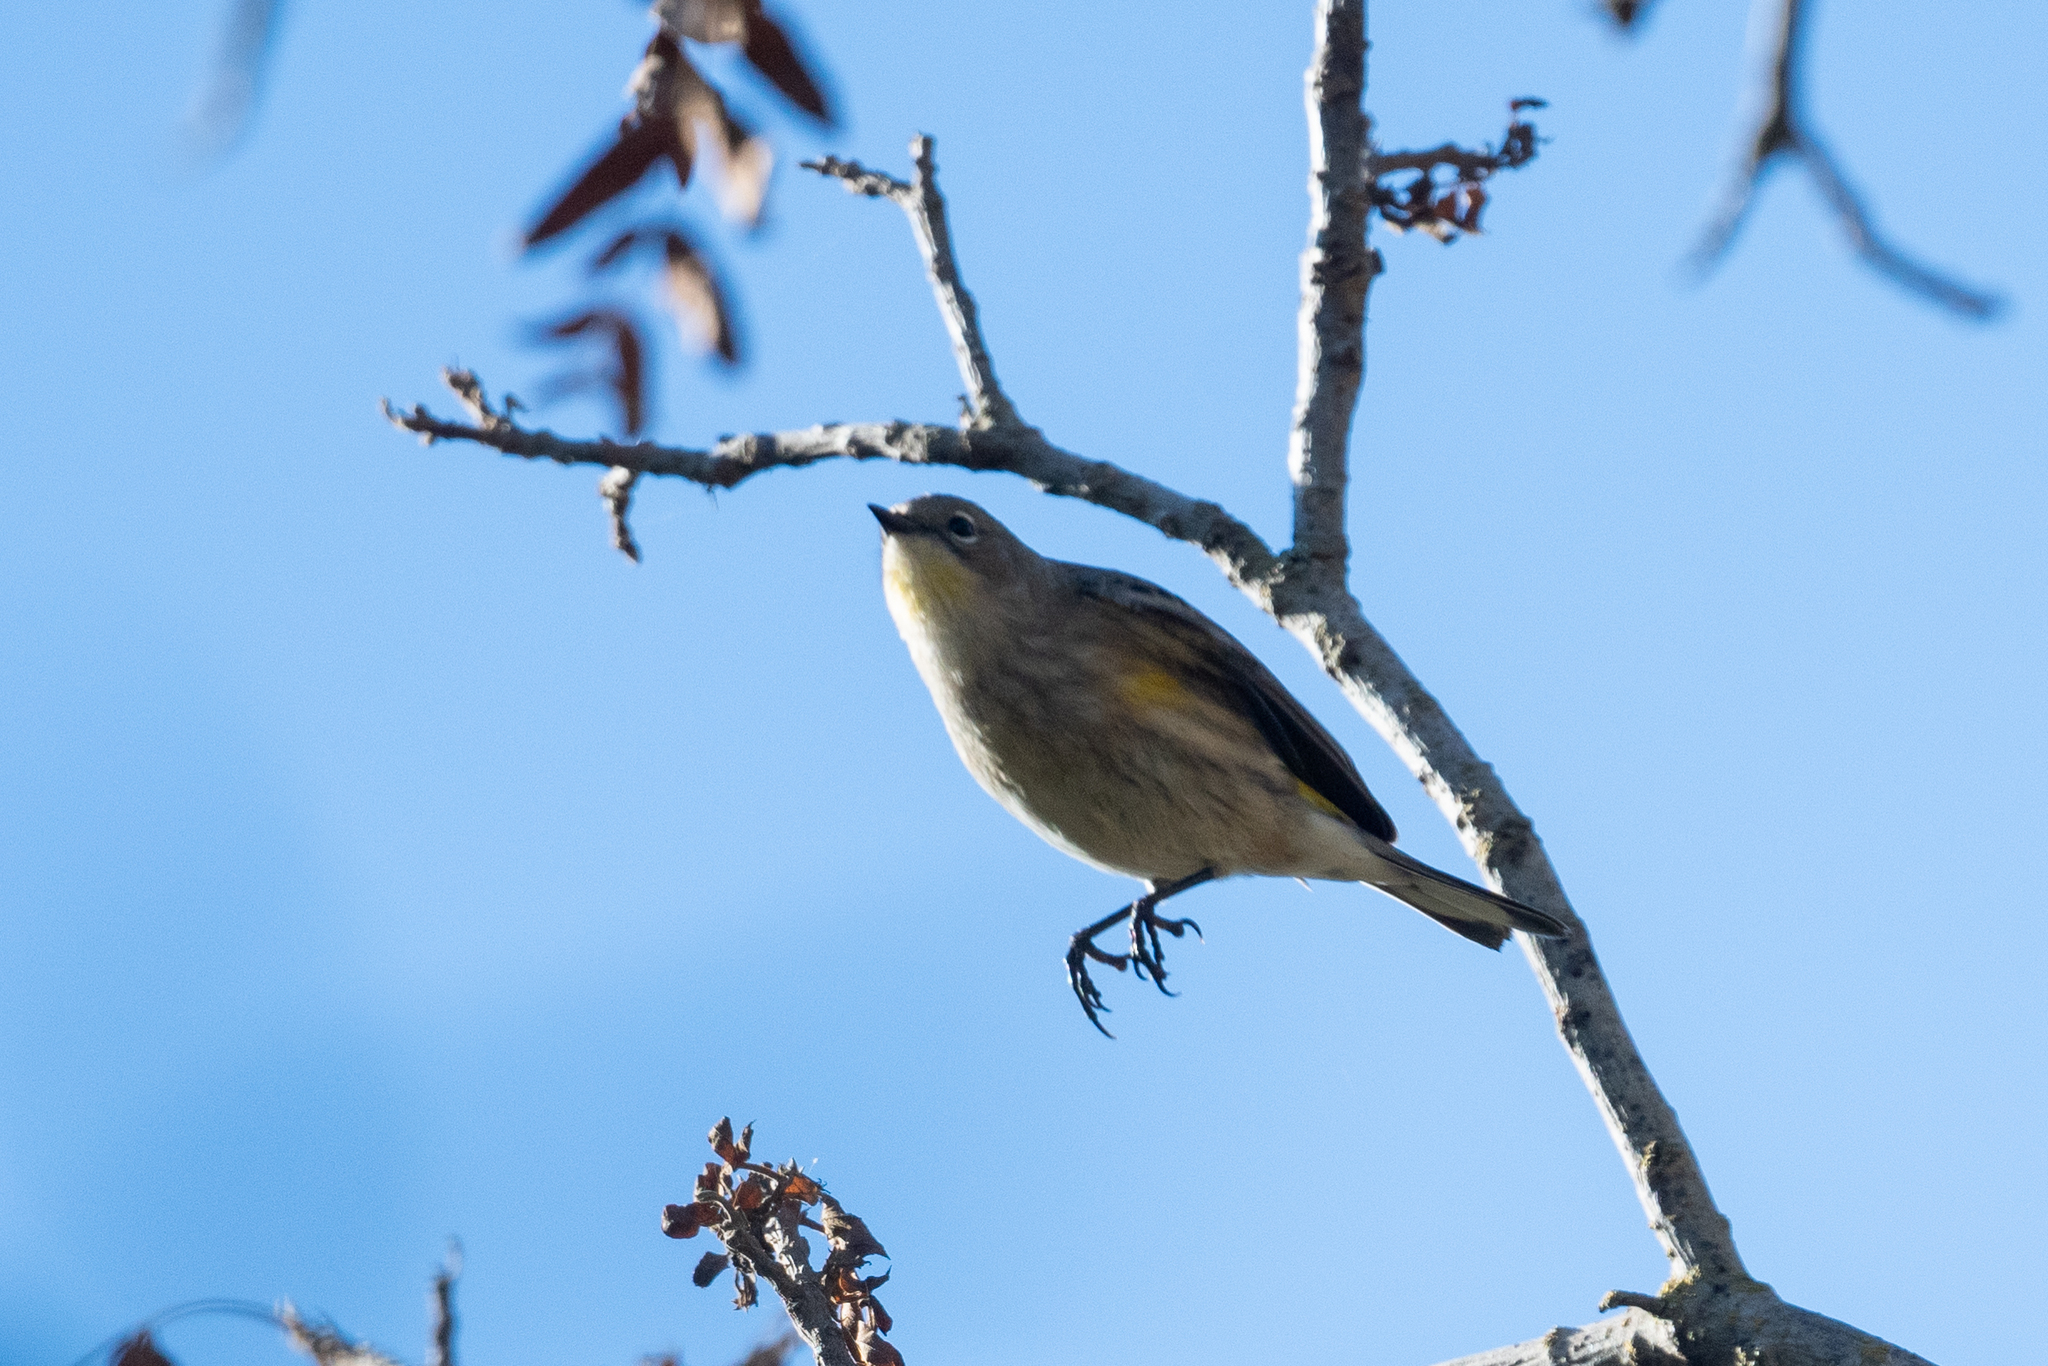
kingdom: Animalia
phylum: Chordata
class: Aves
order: Passeriformes
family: Parulidae
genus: Setophaga
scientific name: Setophaga coronata
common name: Myrtle warbler
